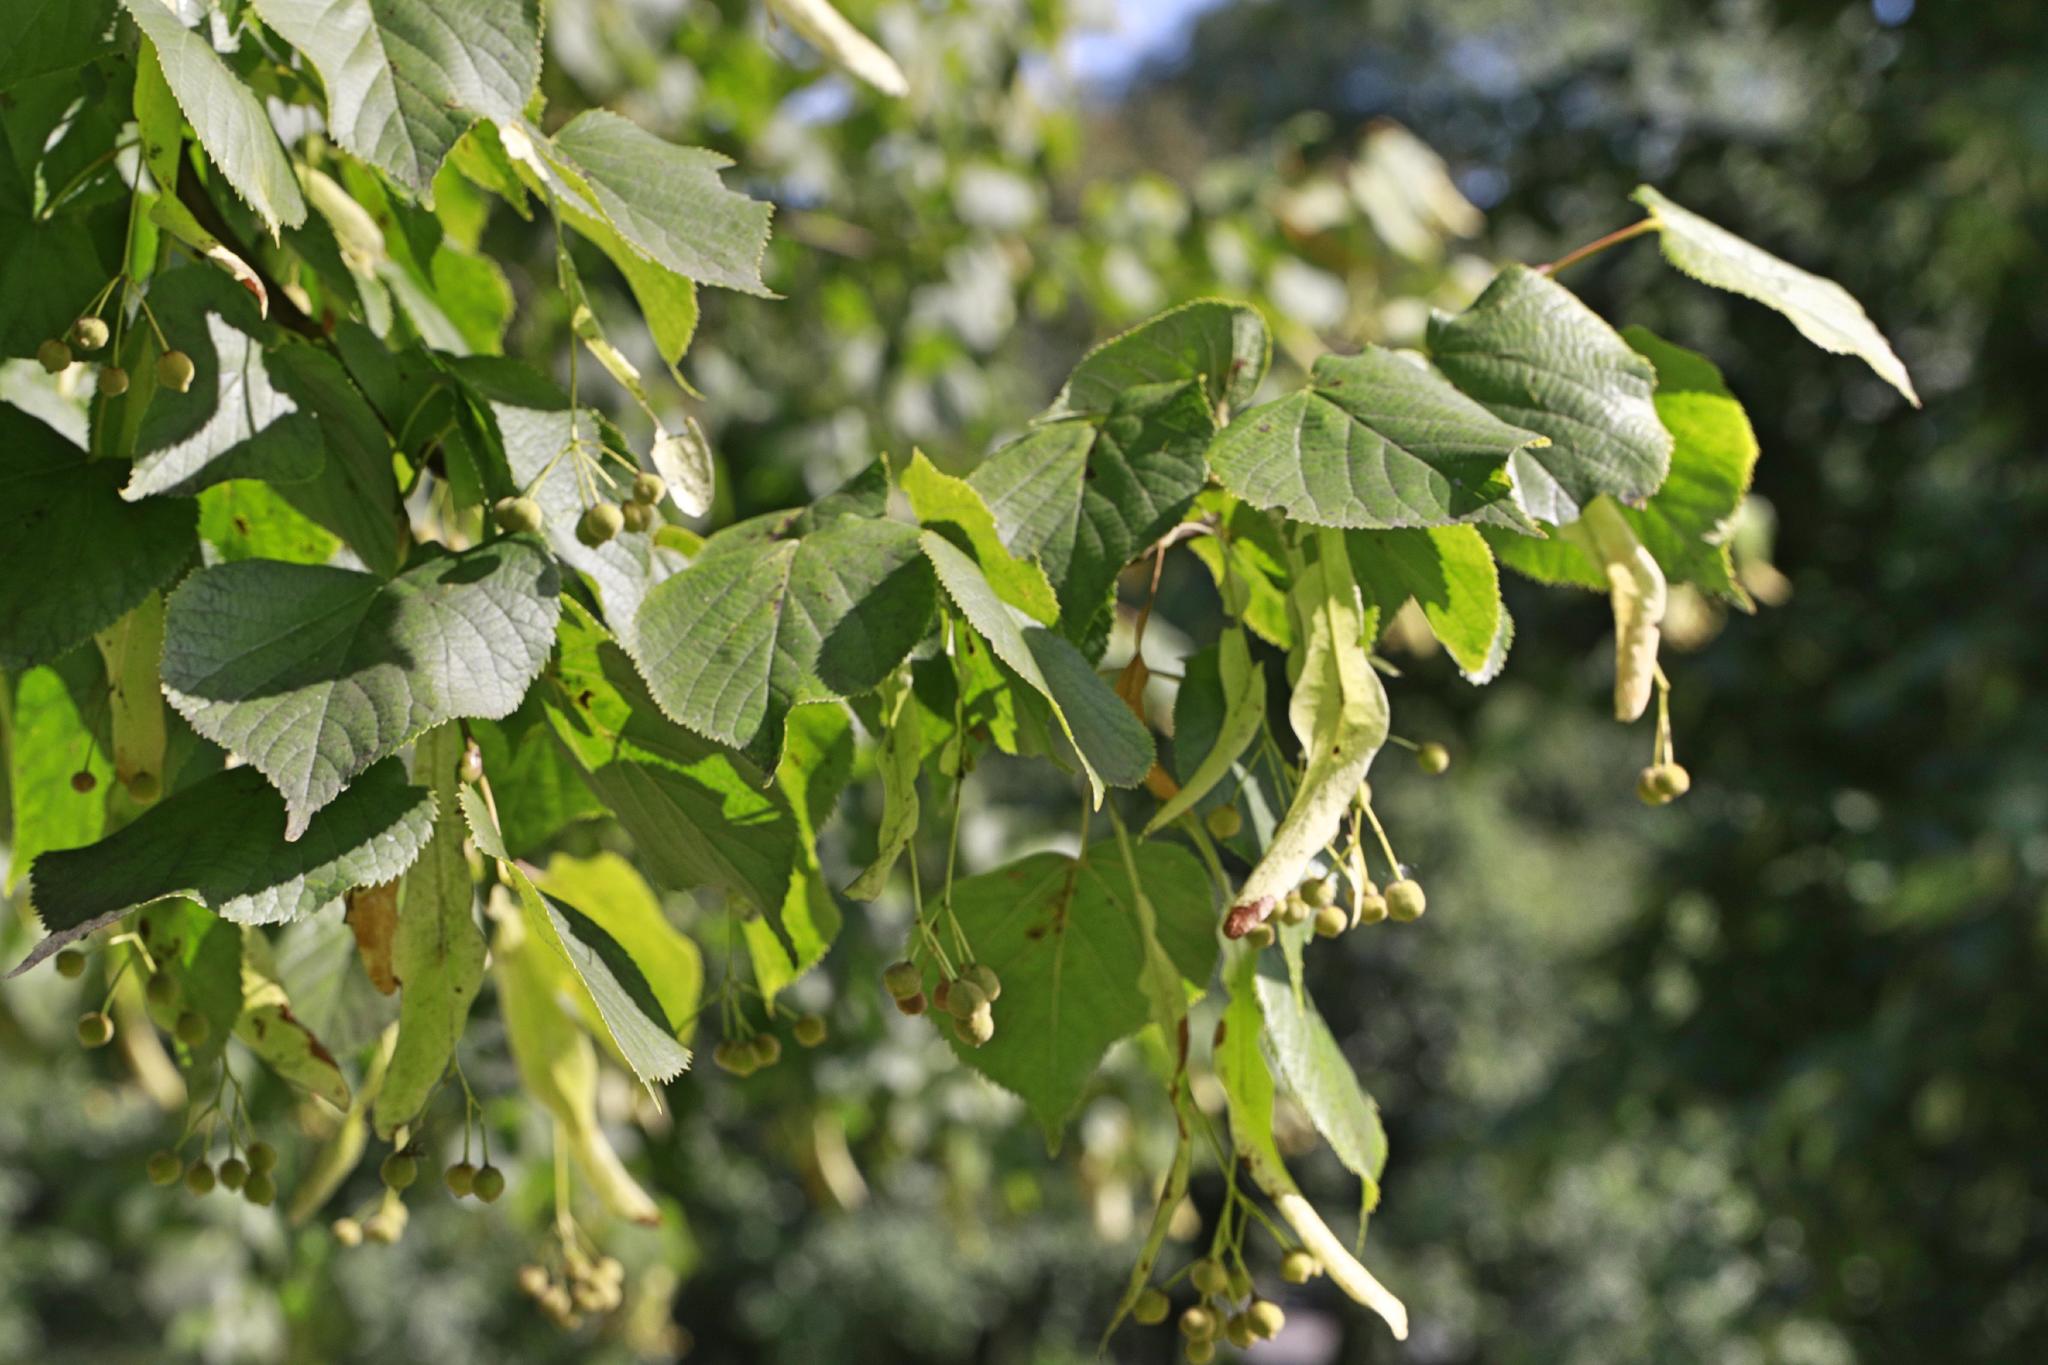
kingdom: Plantae
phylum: Tracheophyta
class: Magnoliopsida
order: Malvales
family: Malvaceae
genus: Tilia
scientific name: Tilia europaea
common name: European linden
